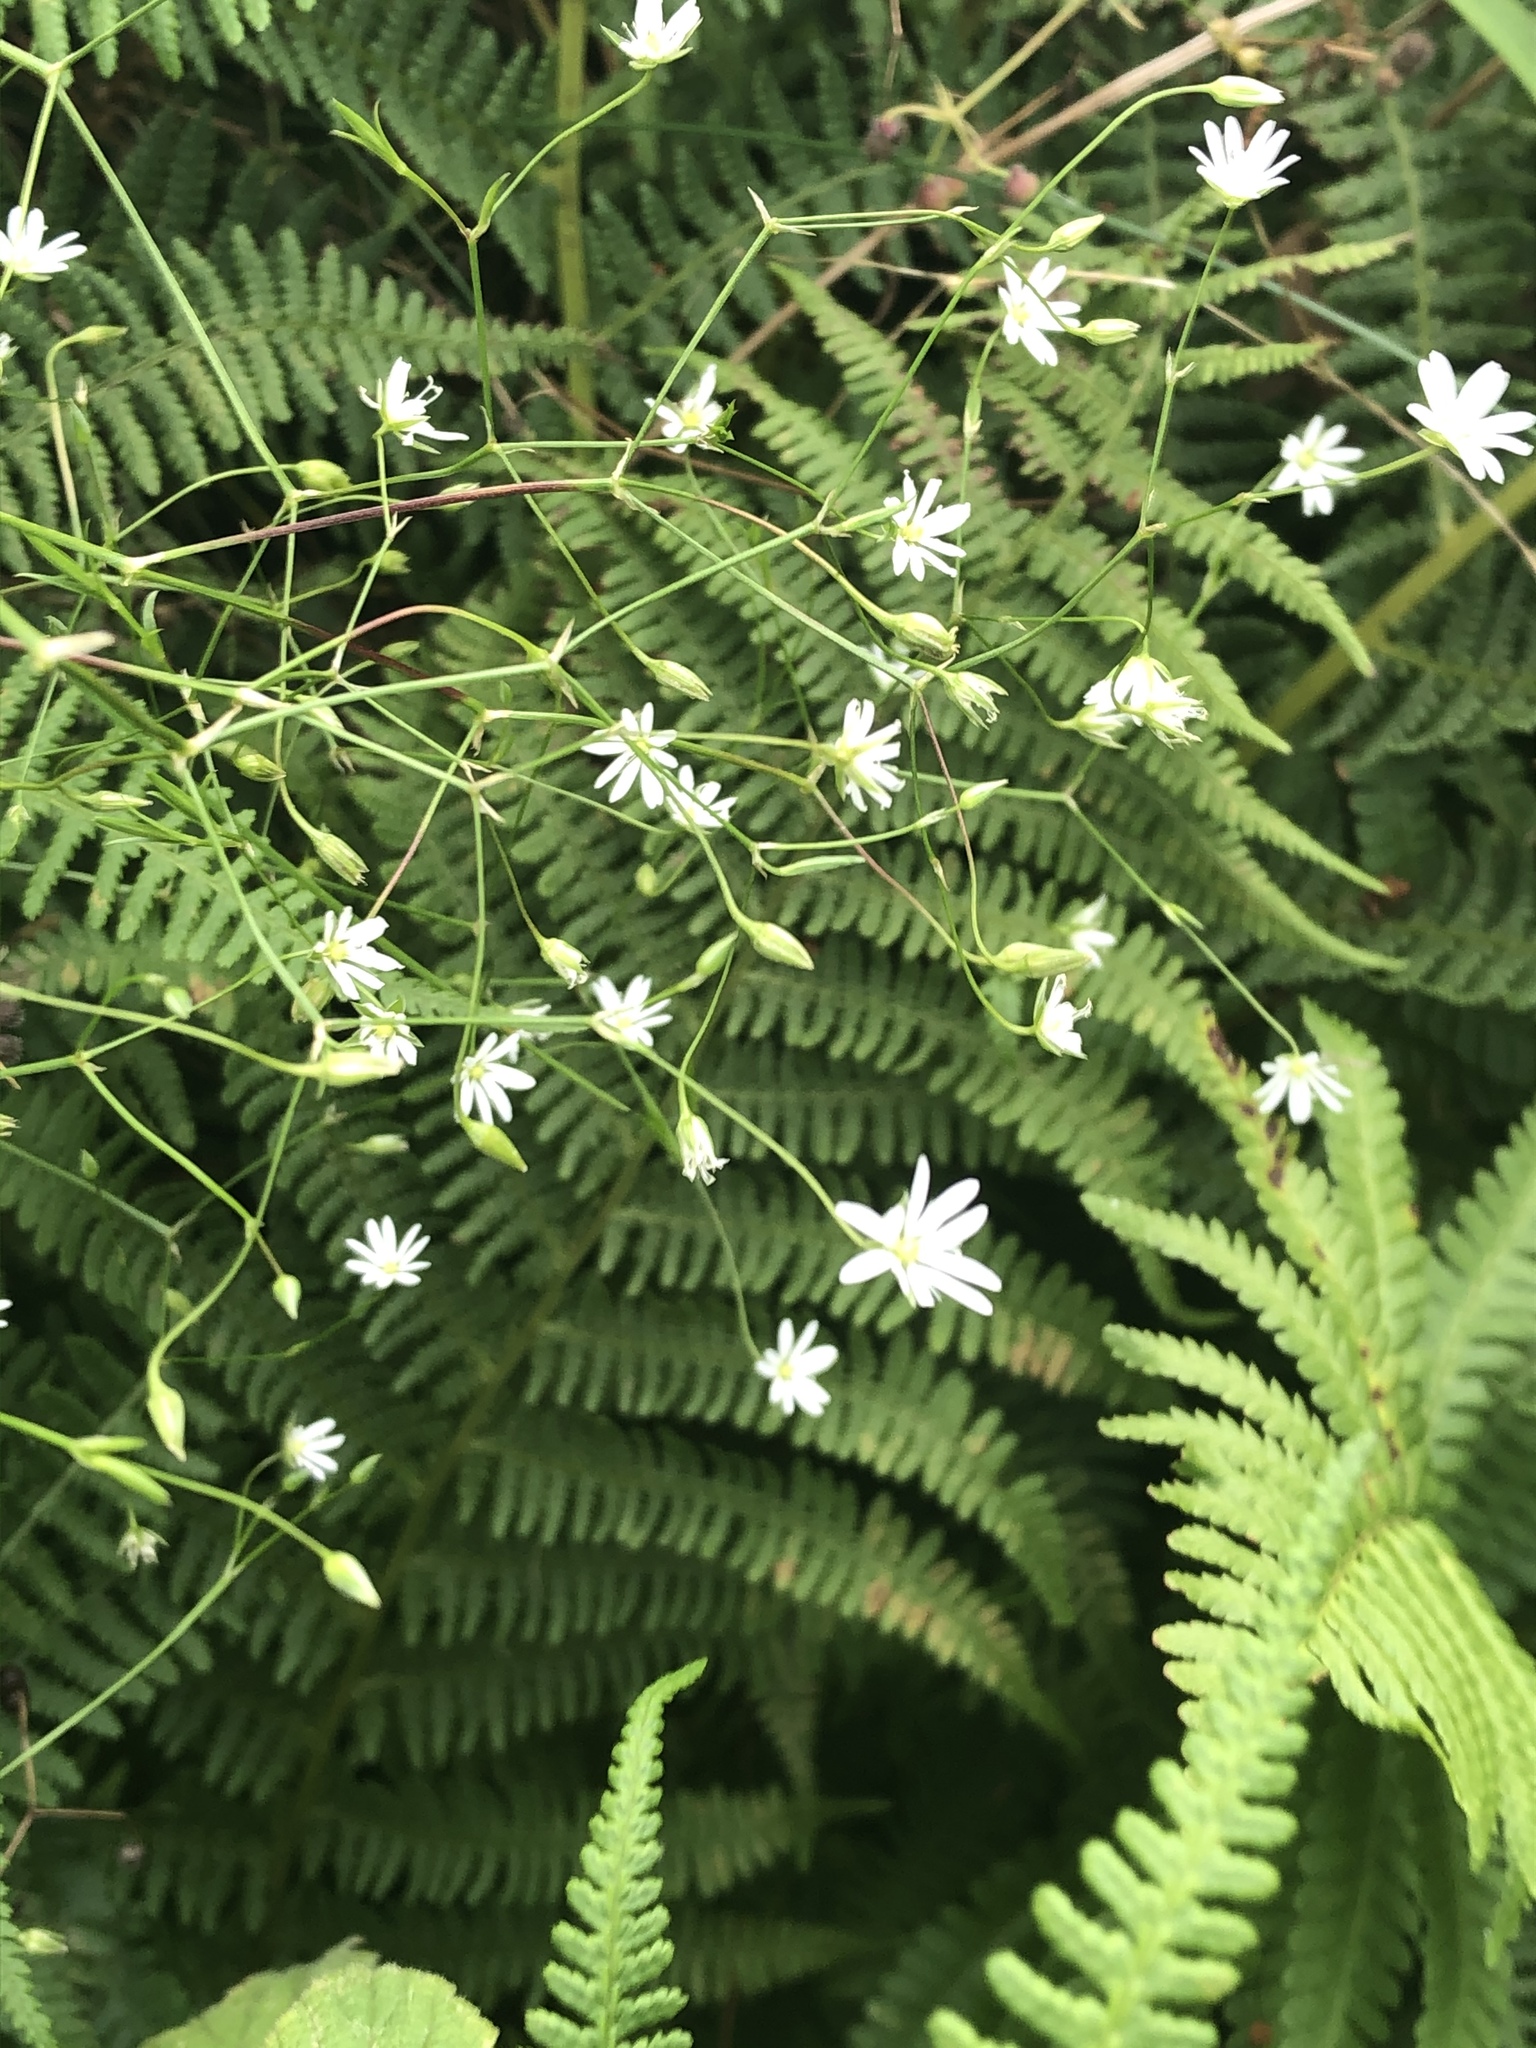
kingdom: Plantae
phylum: Tracheophyta
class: Magnoliopsida
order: Caryophyllales
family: Caryophyllaceae
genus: Stellaria
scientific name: Stellaria graminea
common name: Grass-like starwort
